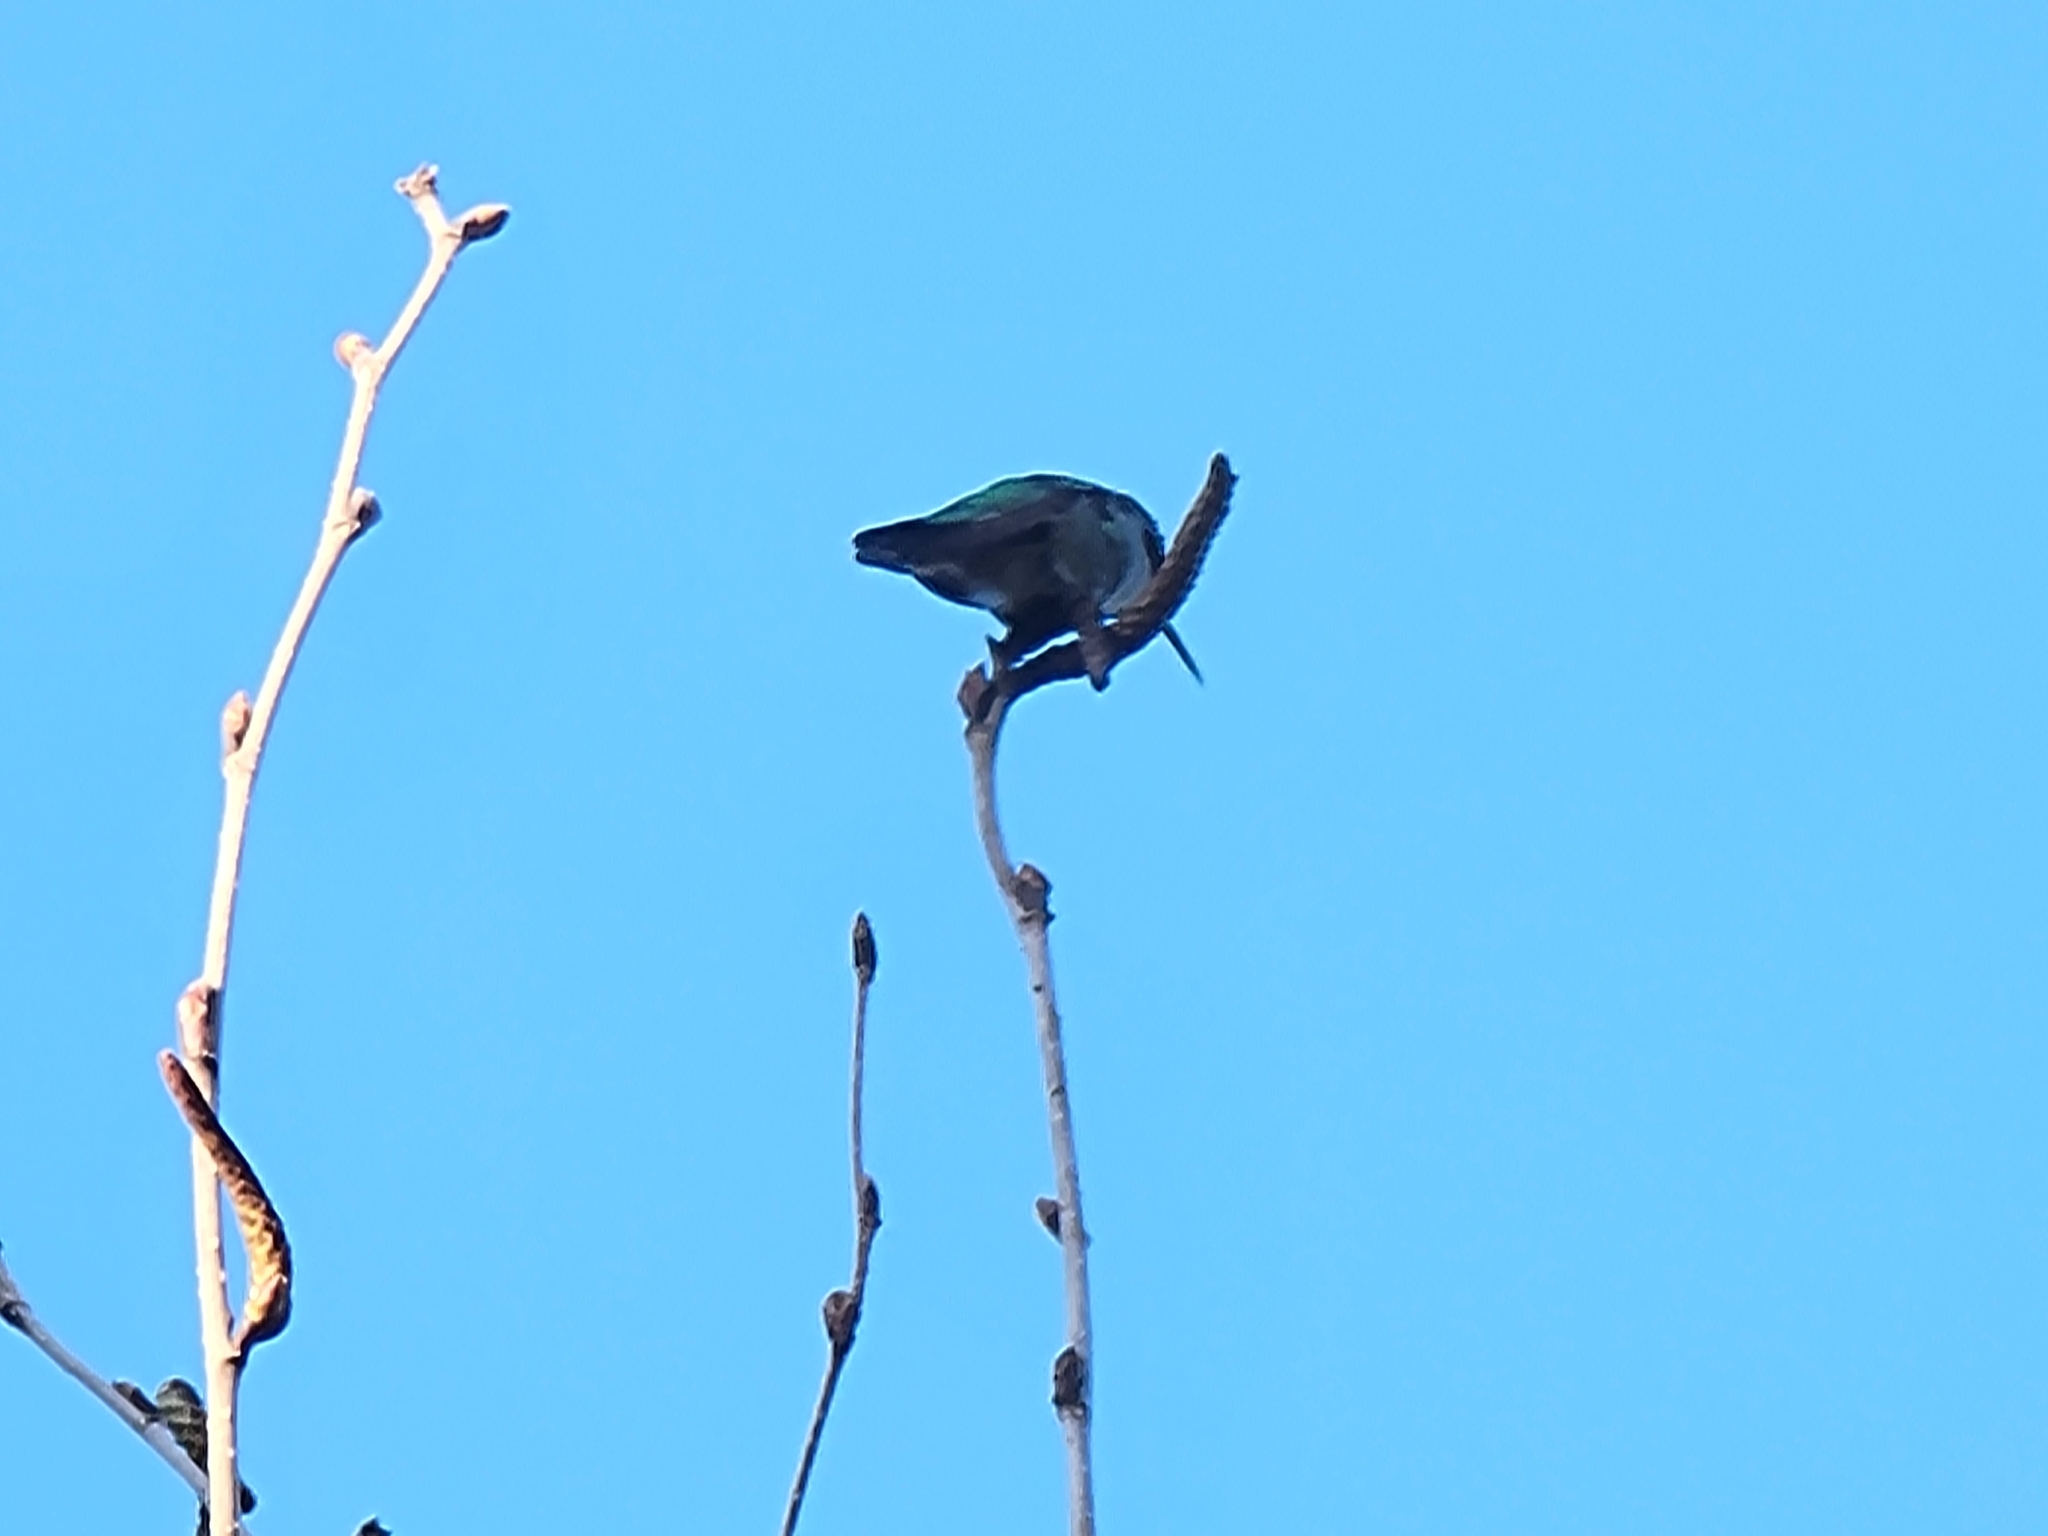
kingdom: Animalia
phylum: Chordata
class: Aves
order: Apodiformes
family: Trochilidae
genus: Calypte
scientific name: Calypte anna
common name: Anna's hummingbird
